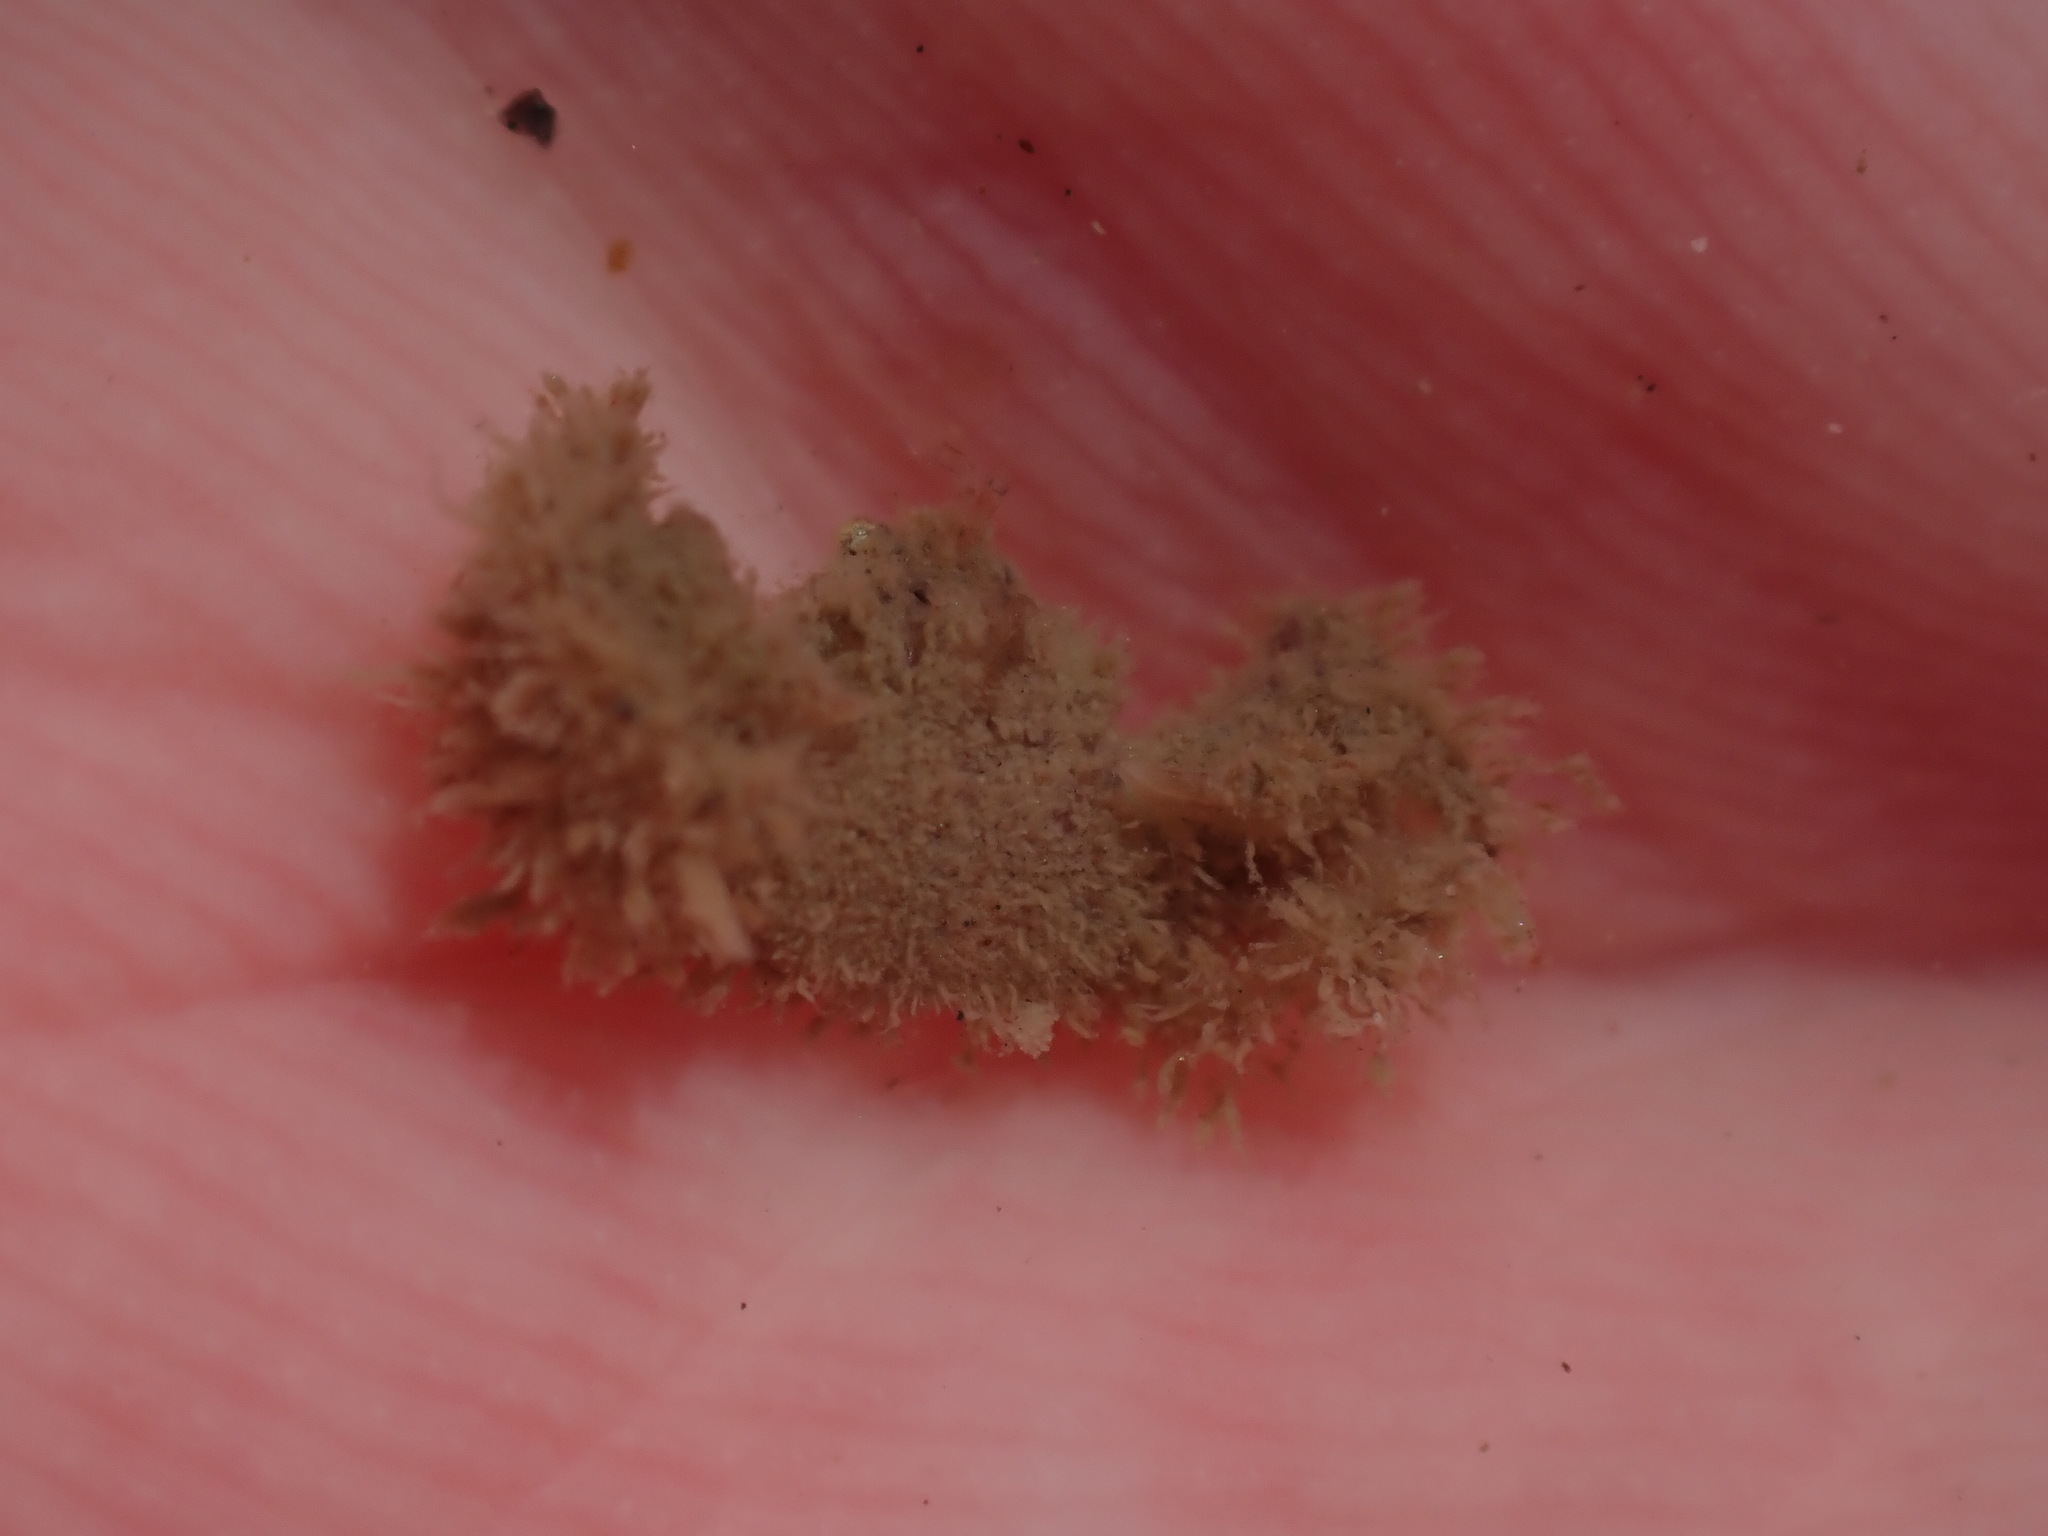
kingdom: Animalia
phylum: Arthropoda
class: Malacostraca
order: Decapoda
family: Hymenosomatidae
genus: Neohymenicus
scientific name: Neohymenicus pubescens
